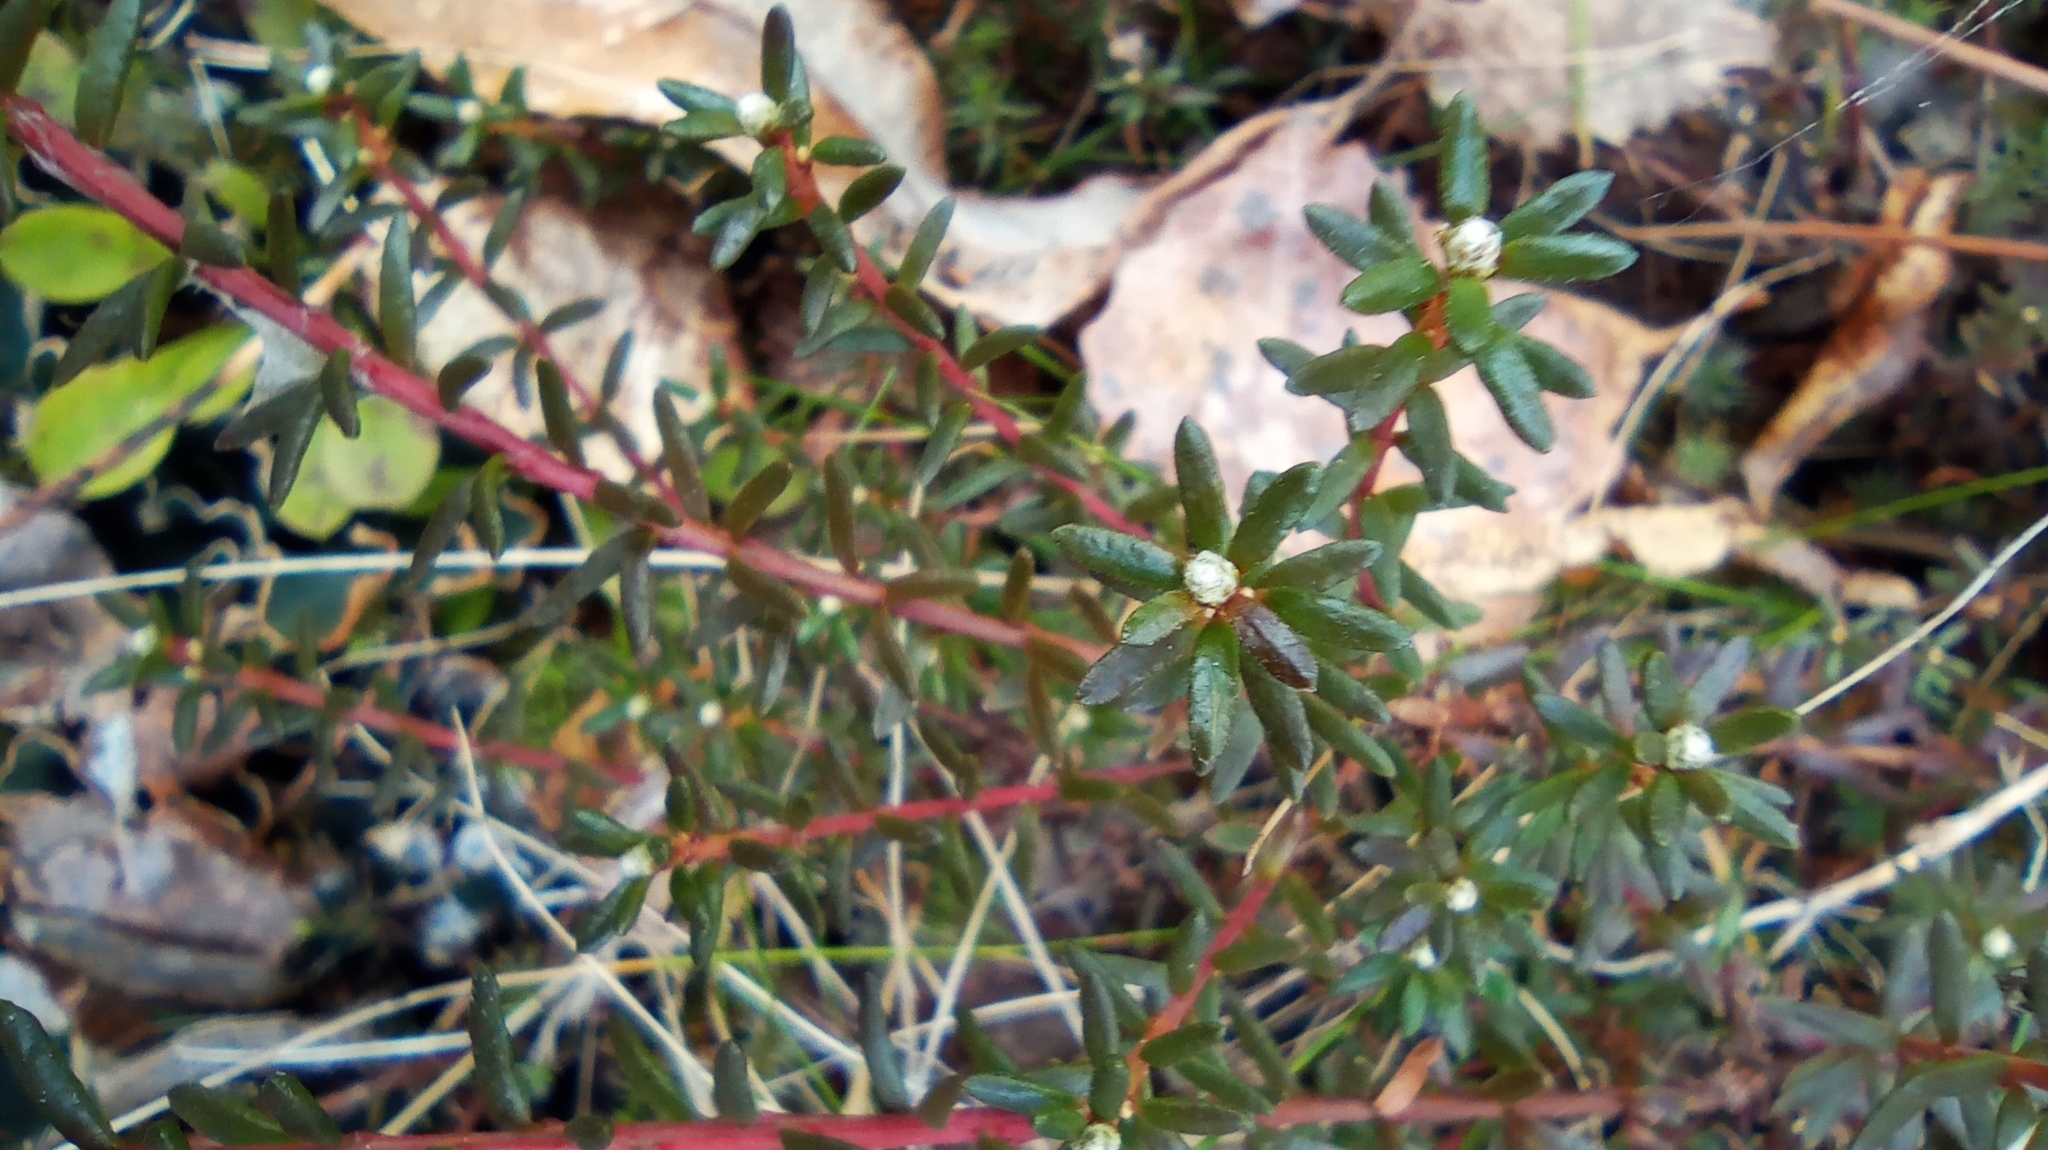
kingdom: Plantae
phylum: Tracheophyta
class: Magnoliopsida
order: Ericales
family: Ericaceae
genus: Empetrum
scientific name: Empetrum nigrum
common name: Black crowberry
